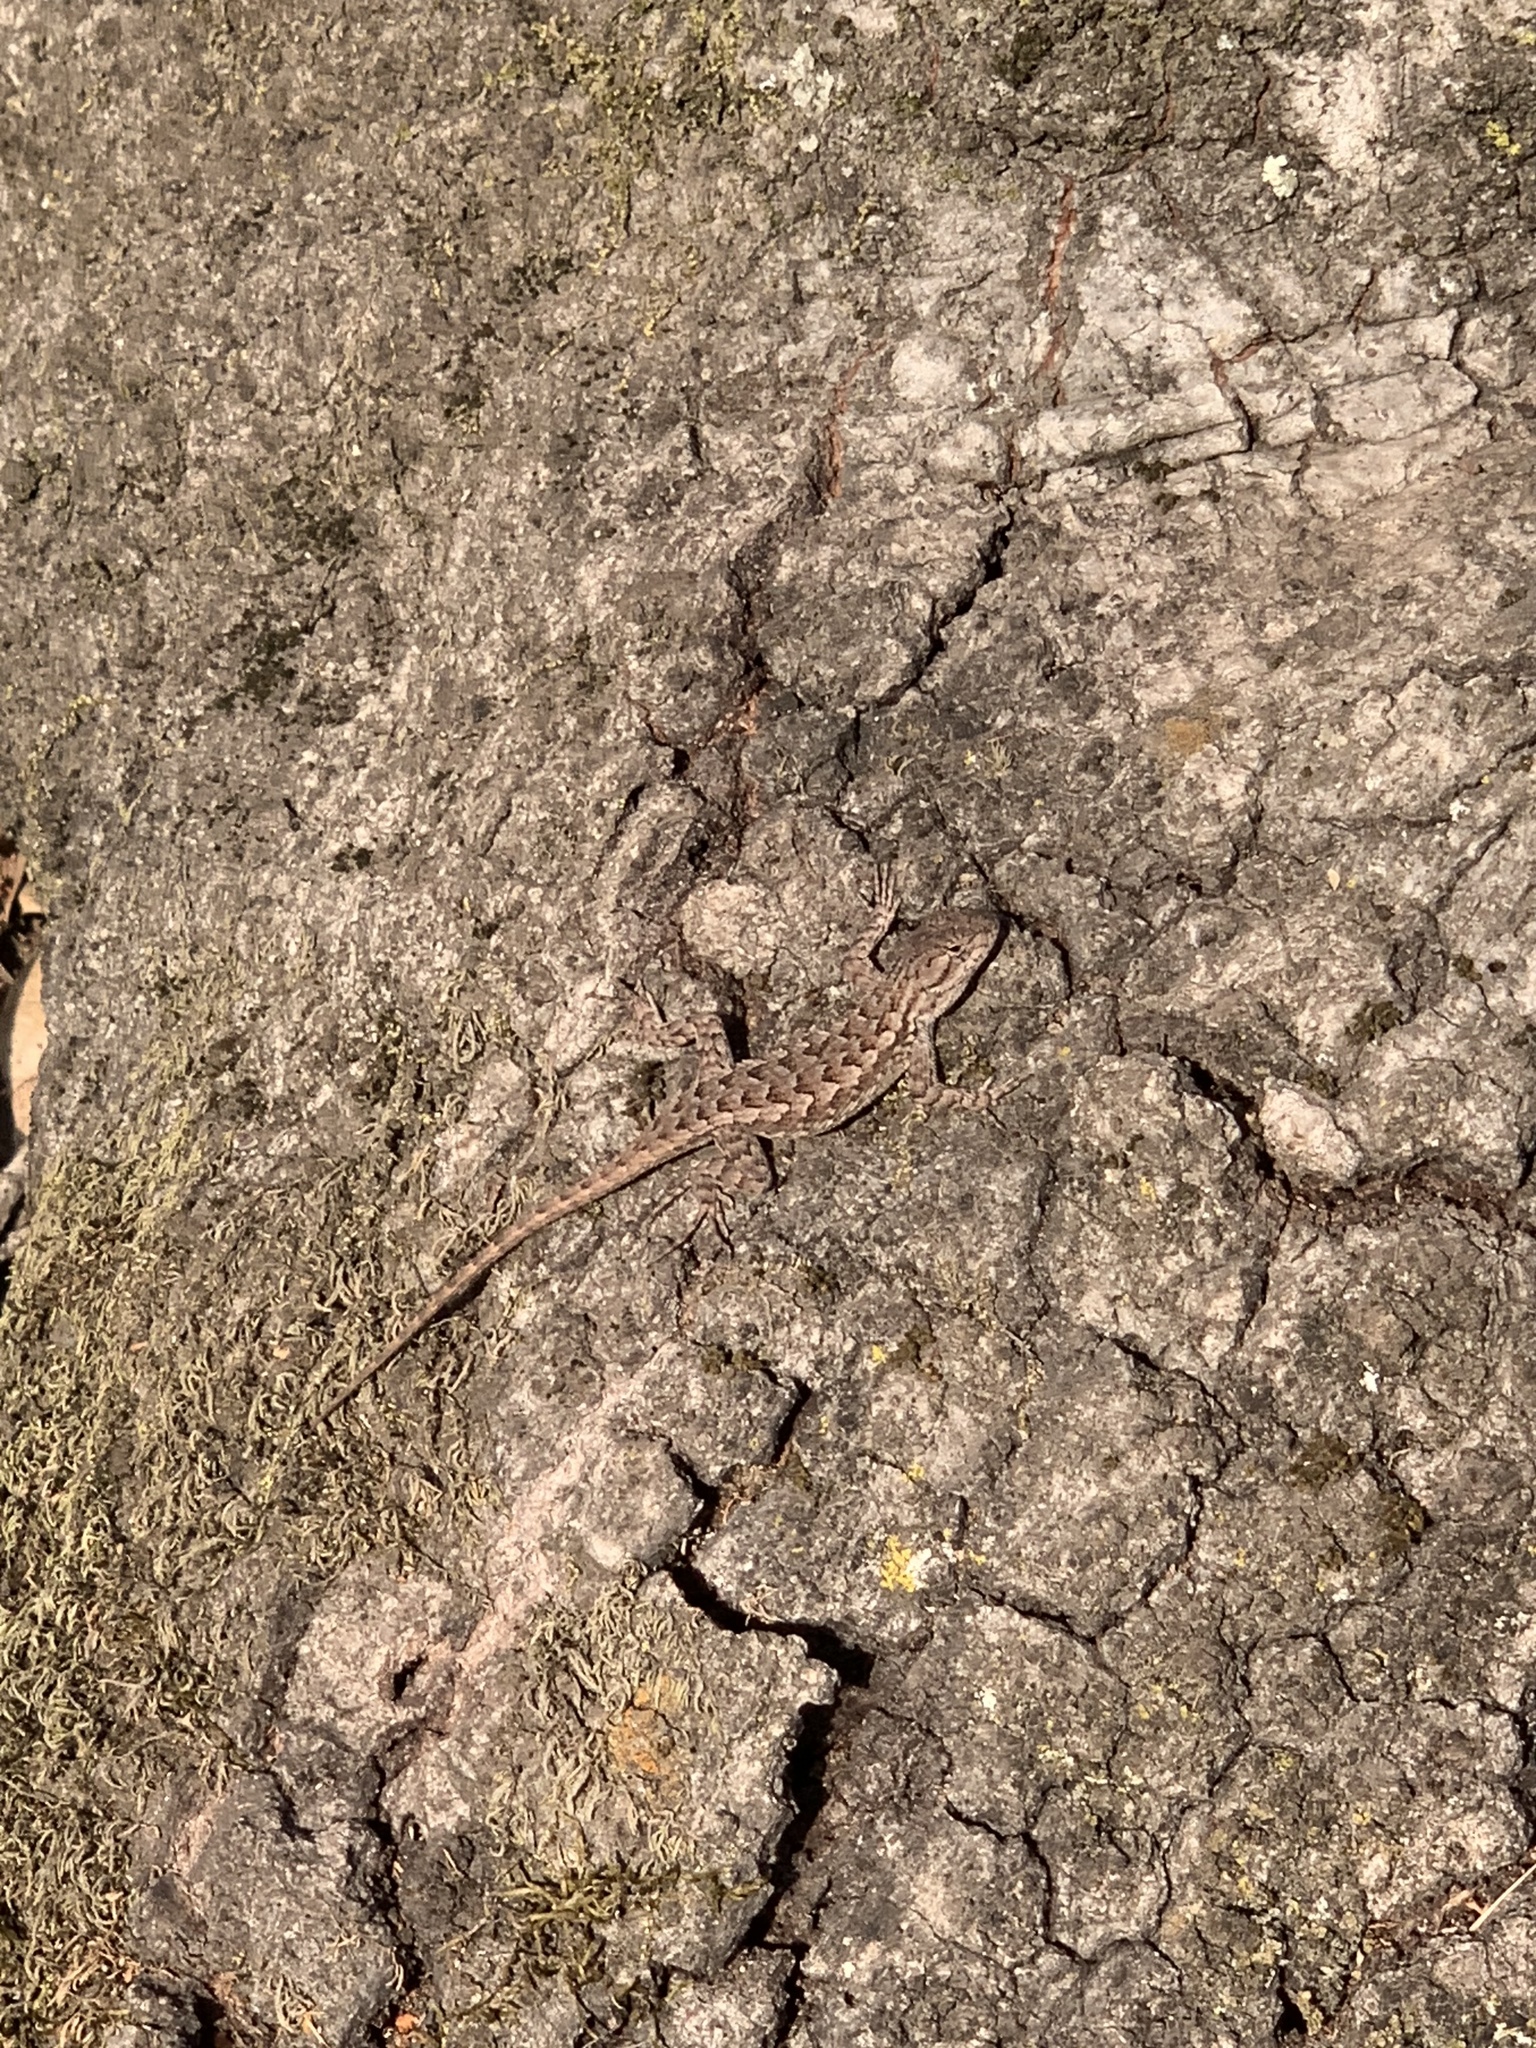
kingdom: Animalia
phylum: Chordata
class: Squamata
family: Phrynosomatidae
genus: Sceloporus
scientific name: Sceloporus occidentalis
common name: Western fence lizard
